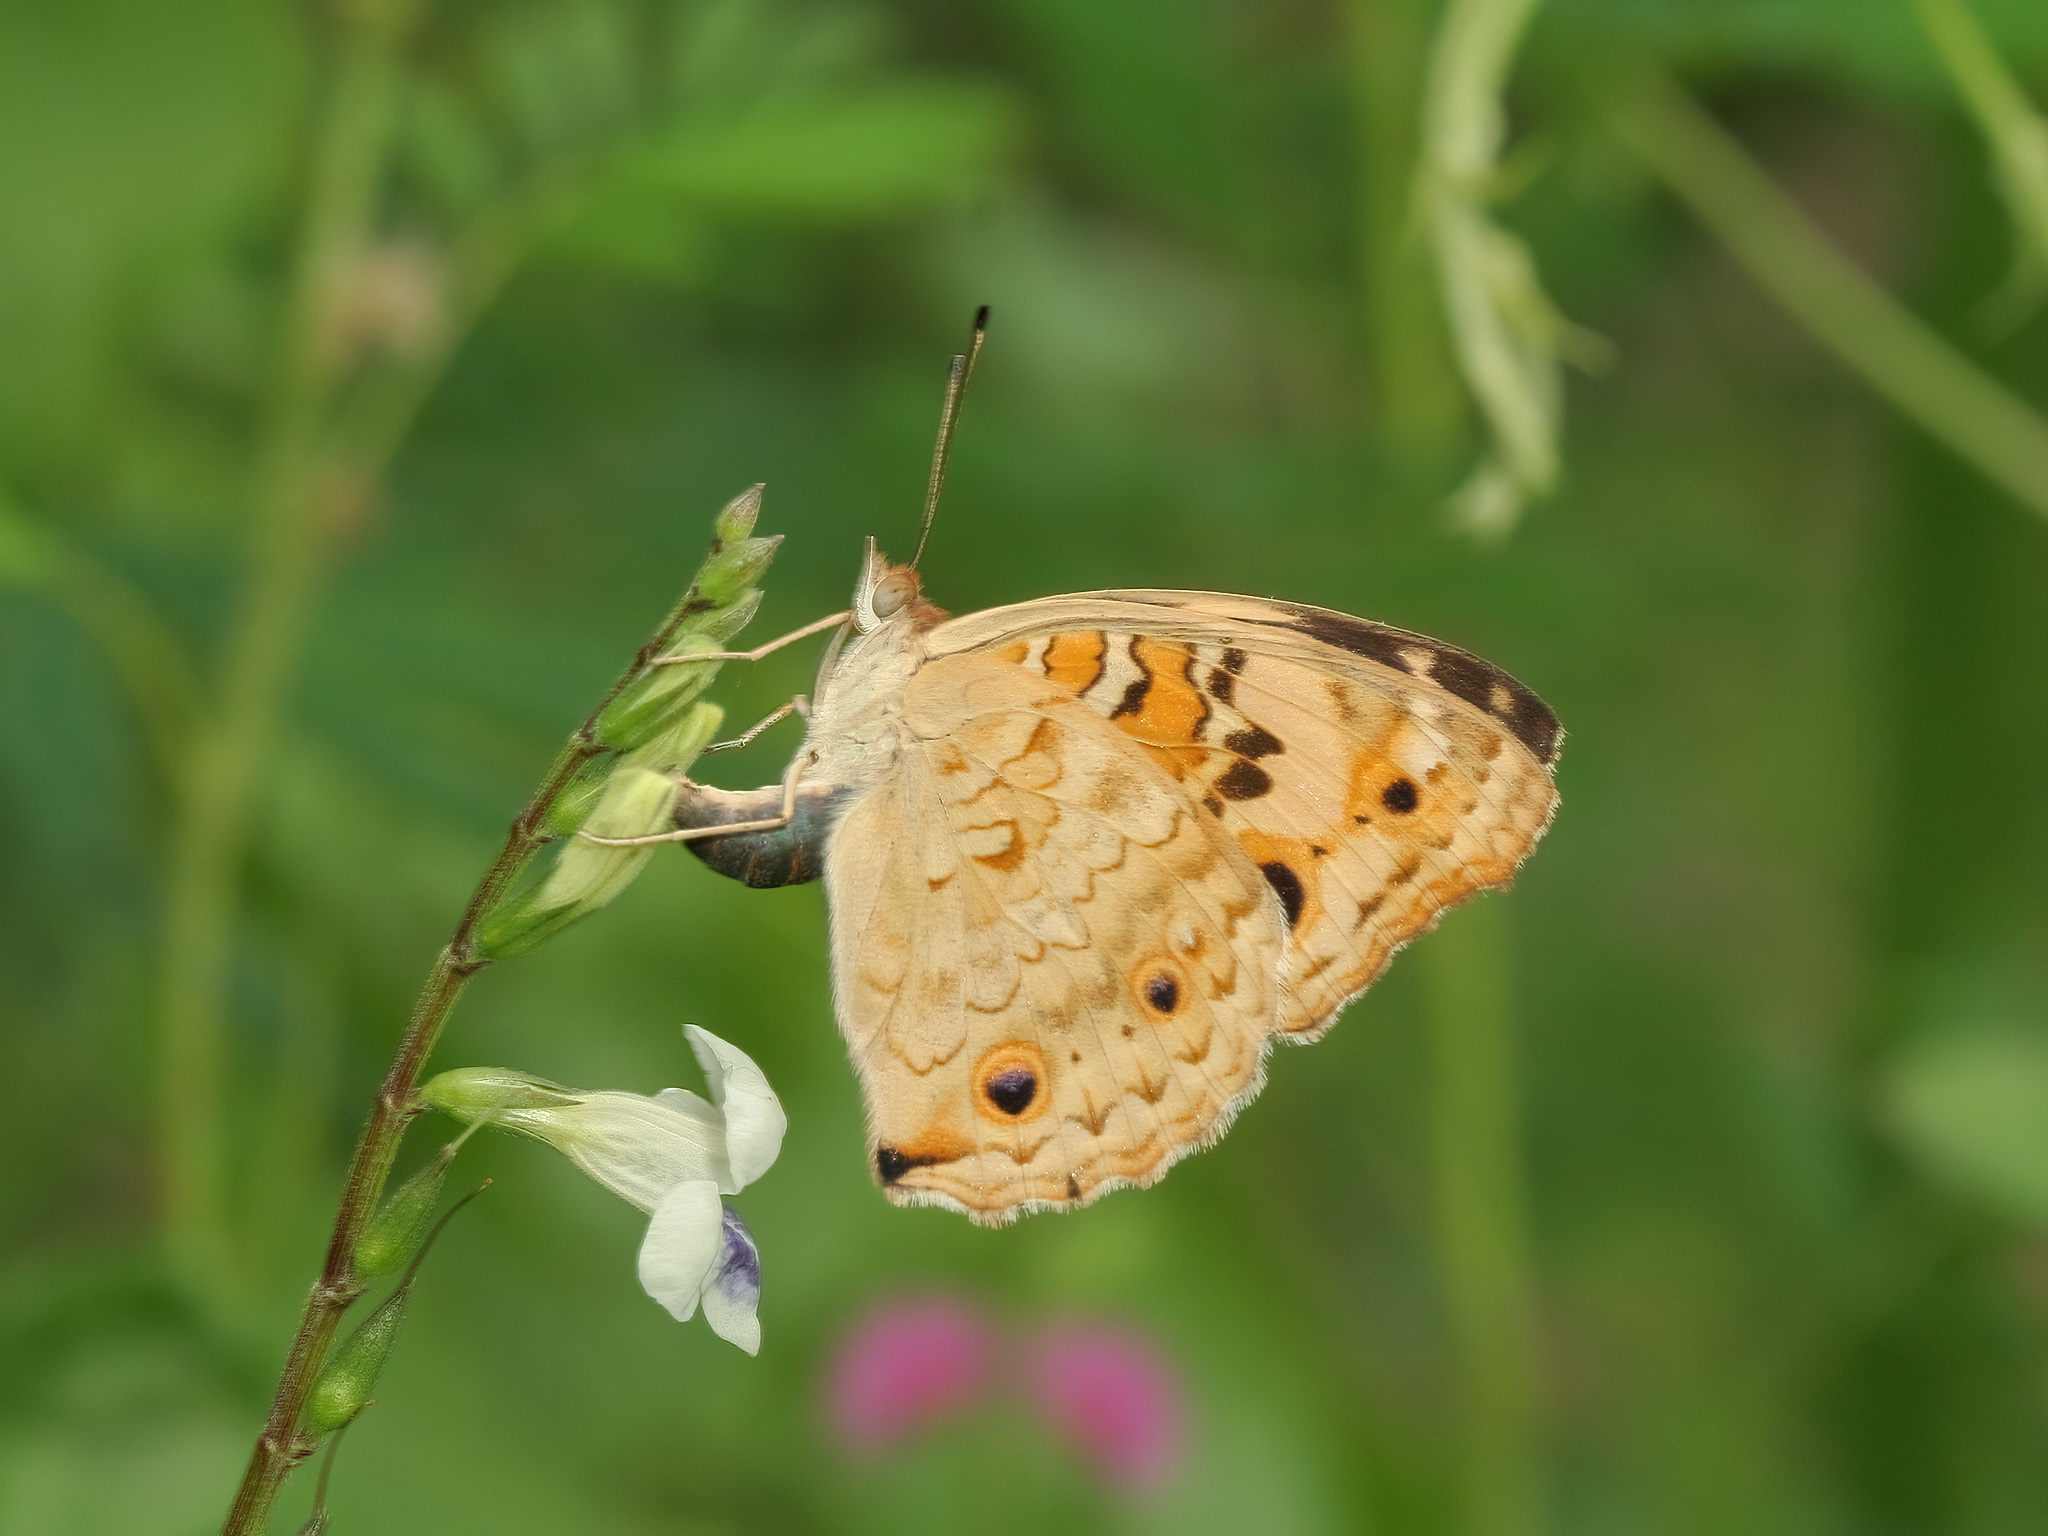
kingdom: Animalia
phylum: Arthropoda
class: Insecta
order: Lepidoptera
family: Nymphalidae
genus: Junonia
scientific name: Junonia orithya
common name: Blue pansy
